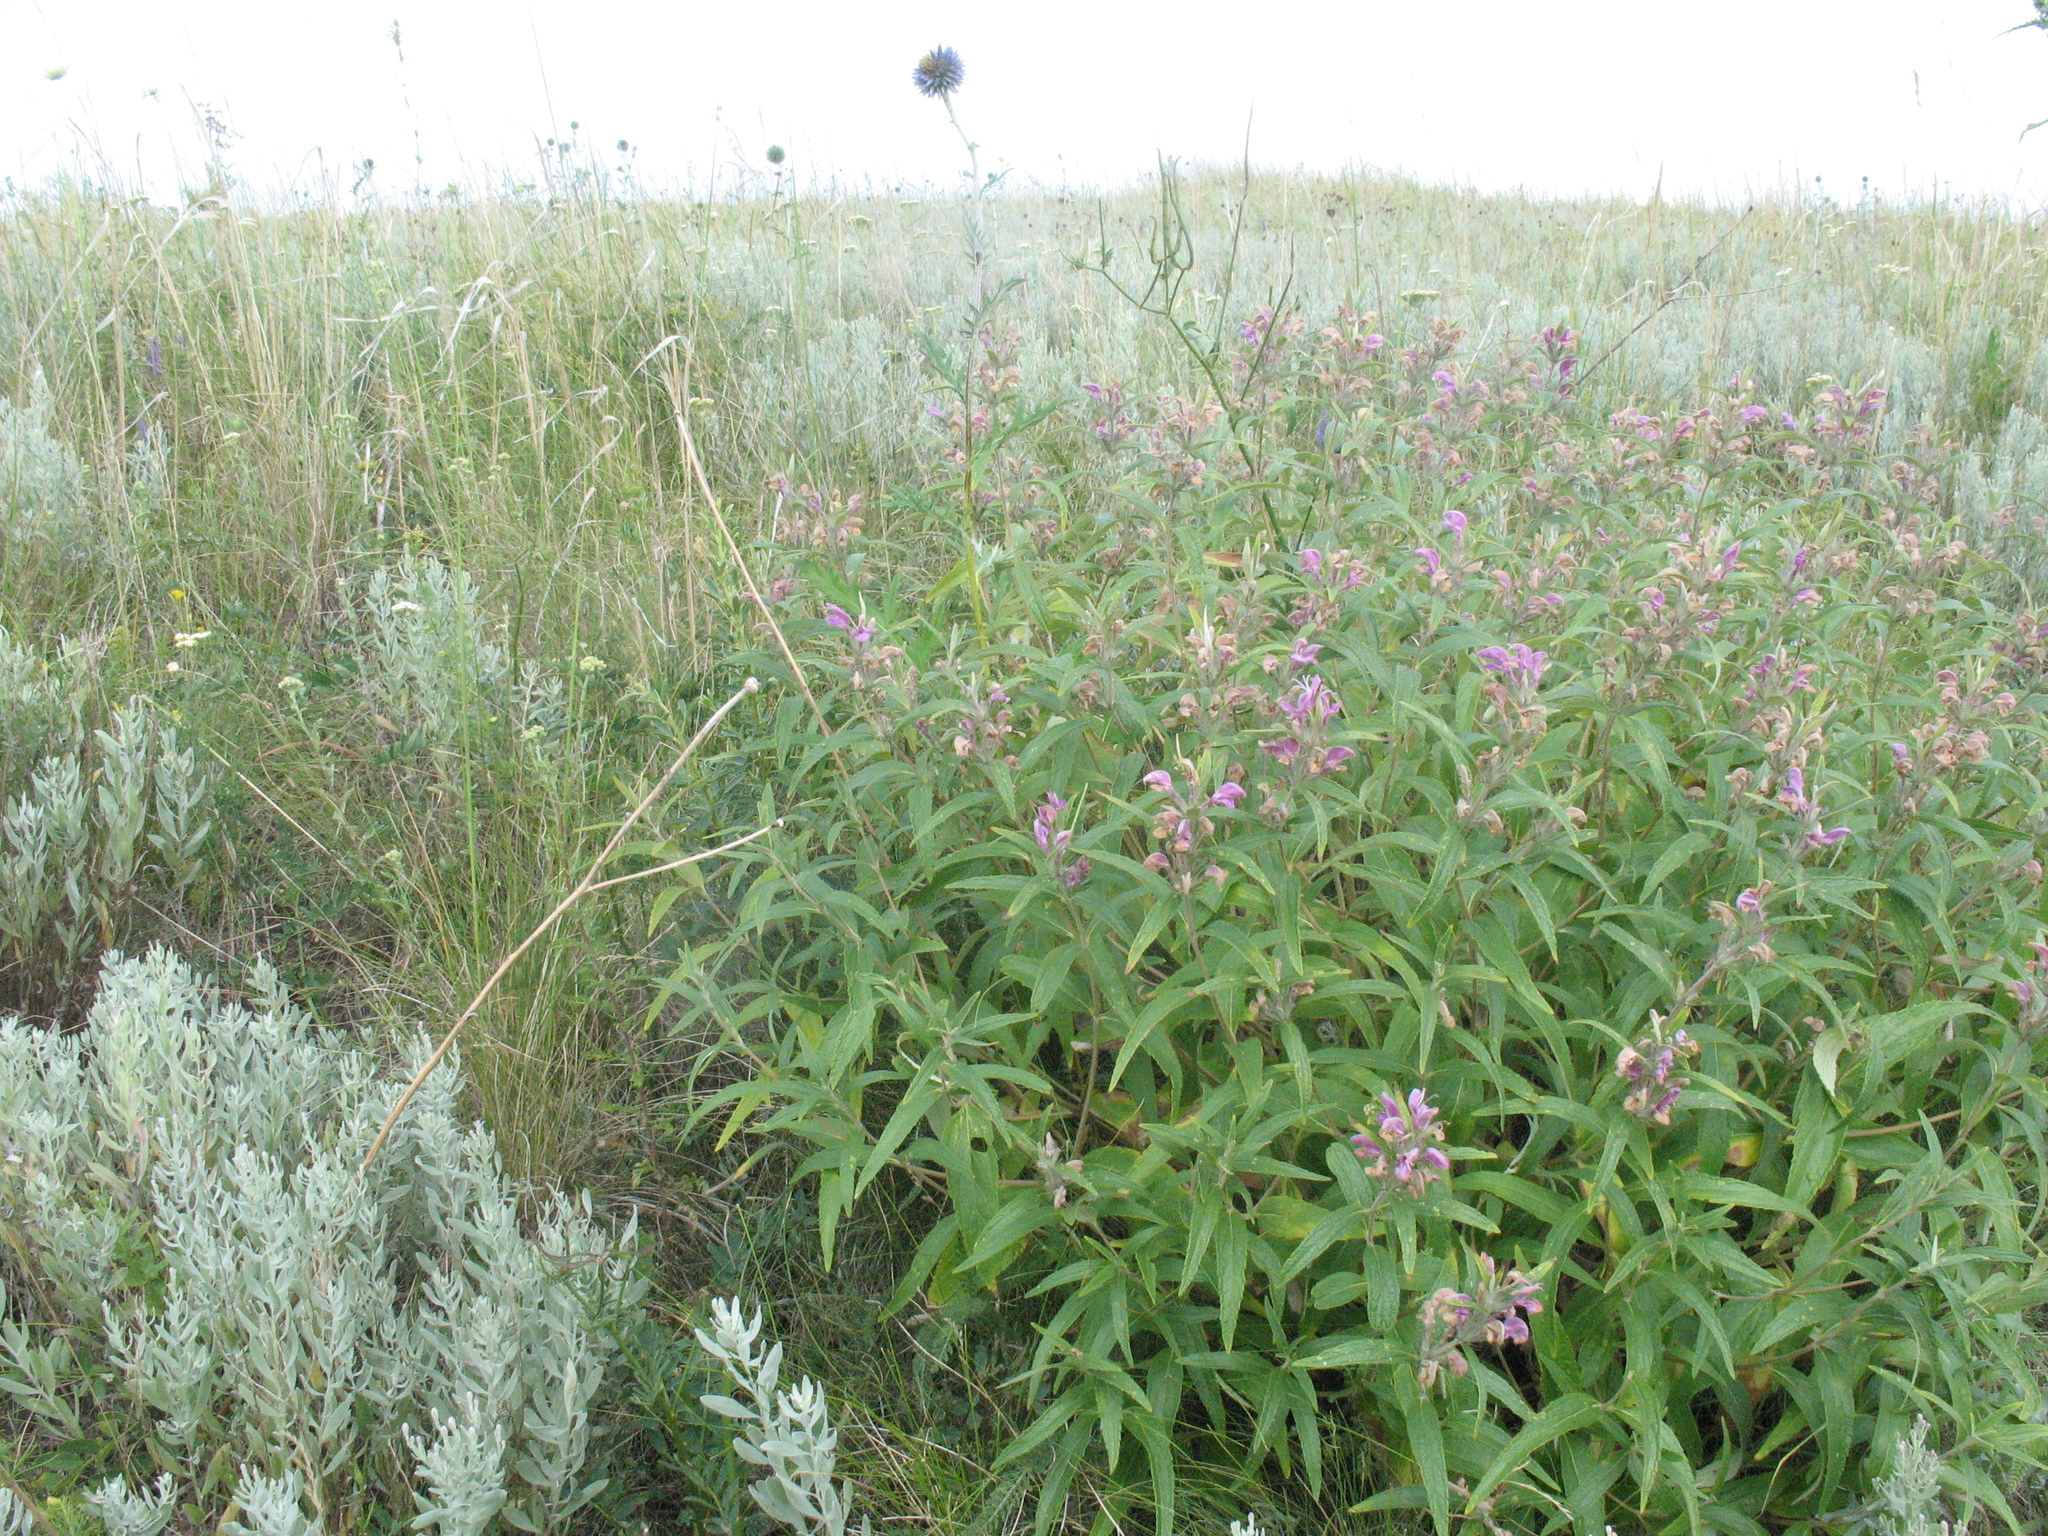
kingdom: Plantae
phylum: Tracheophyta
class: Magnoliopsida
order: Lamiales
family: Lamiaceae
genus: Phlomis
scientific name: Phlomis herba-venti
